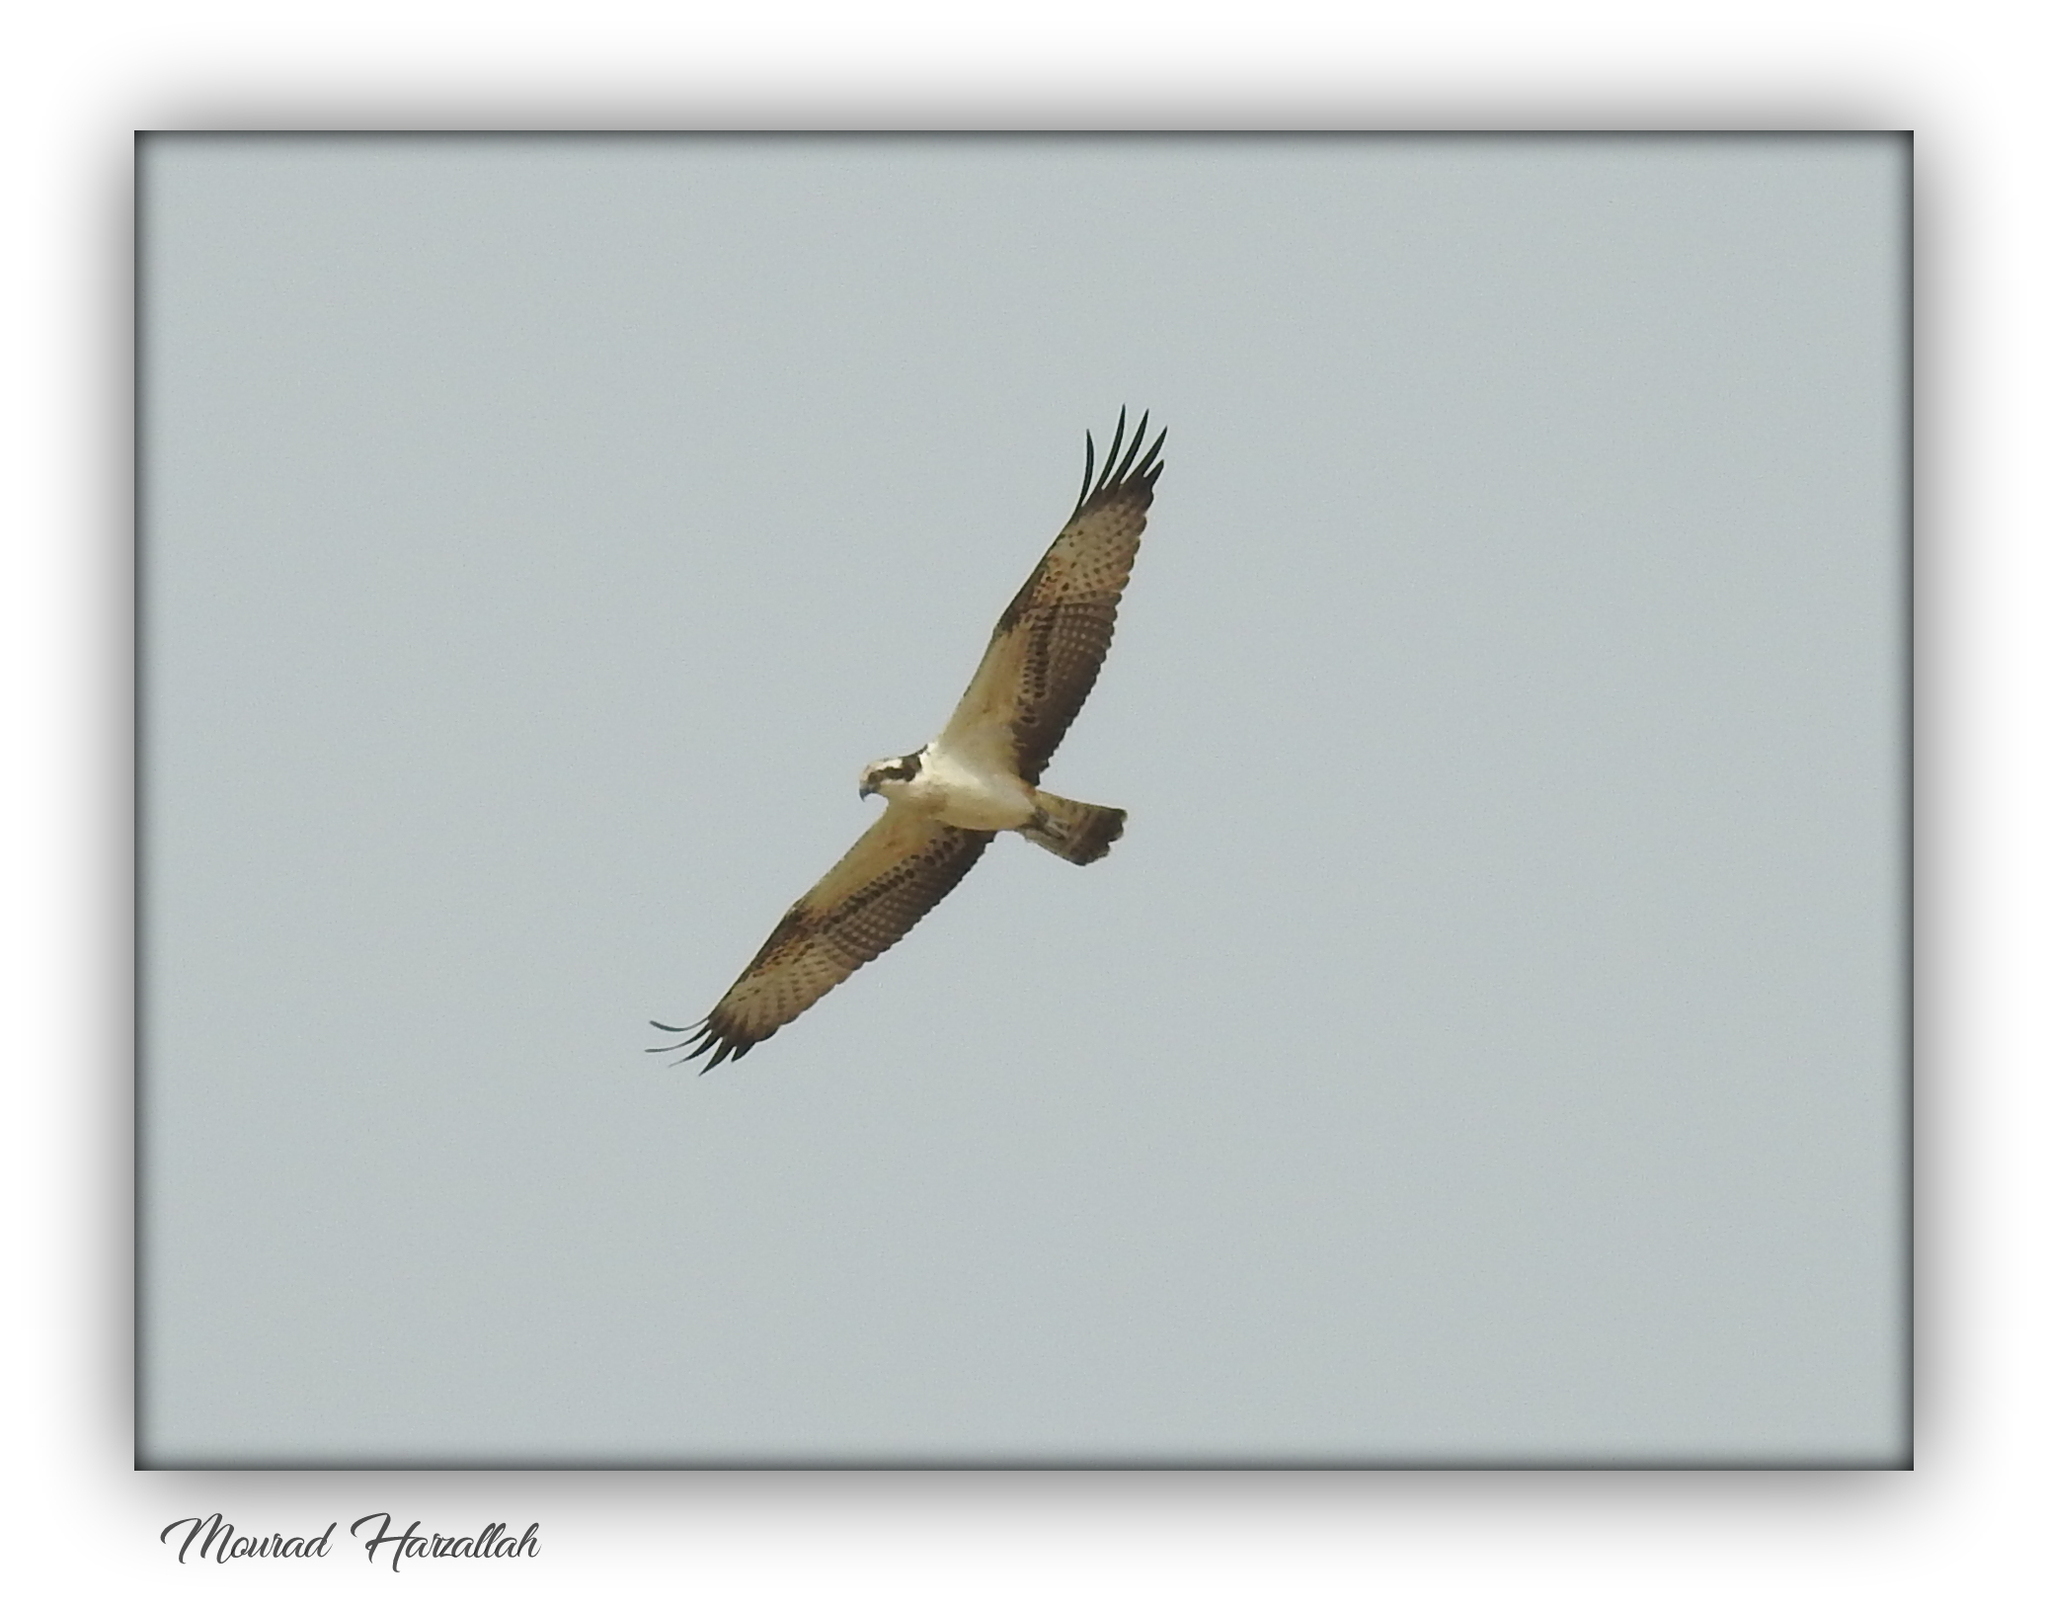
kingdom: Animalia
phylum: Chordata
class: Aves
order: Accipitriformes
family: Pandionidae
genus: Pandion
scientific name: Pandion haliaetus
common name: Osprey
